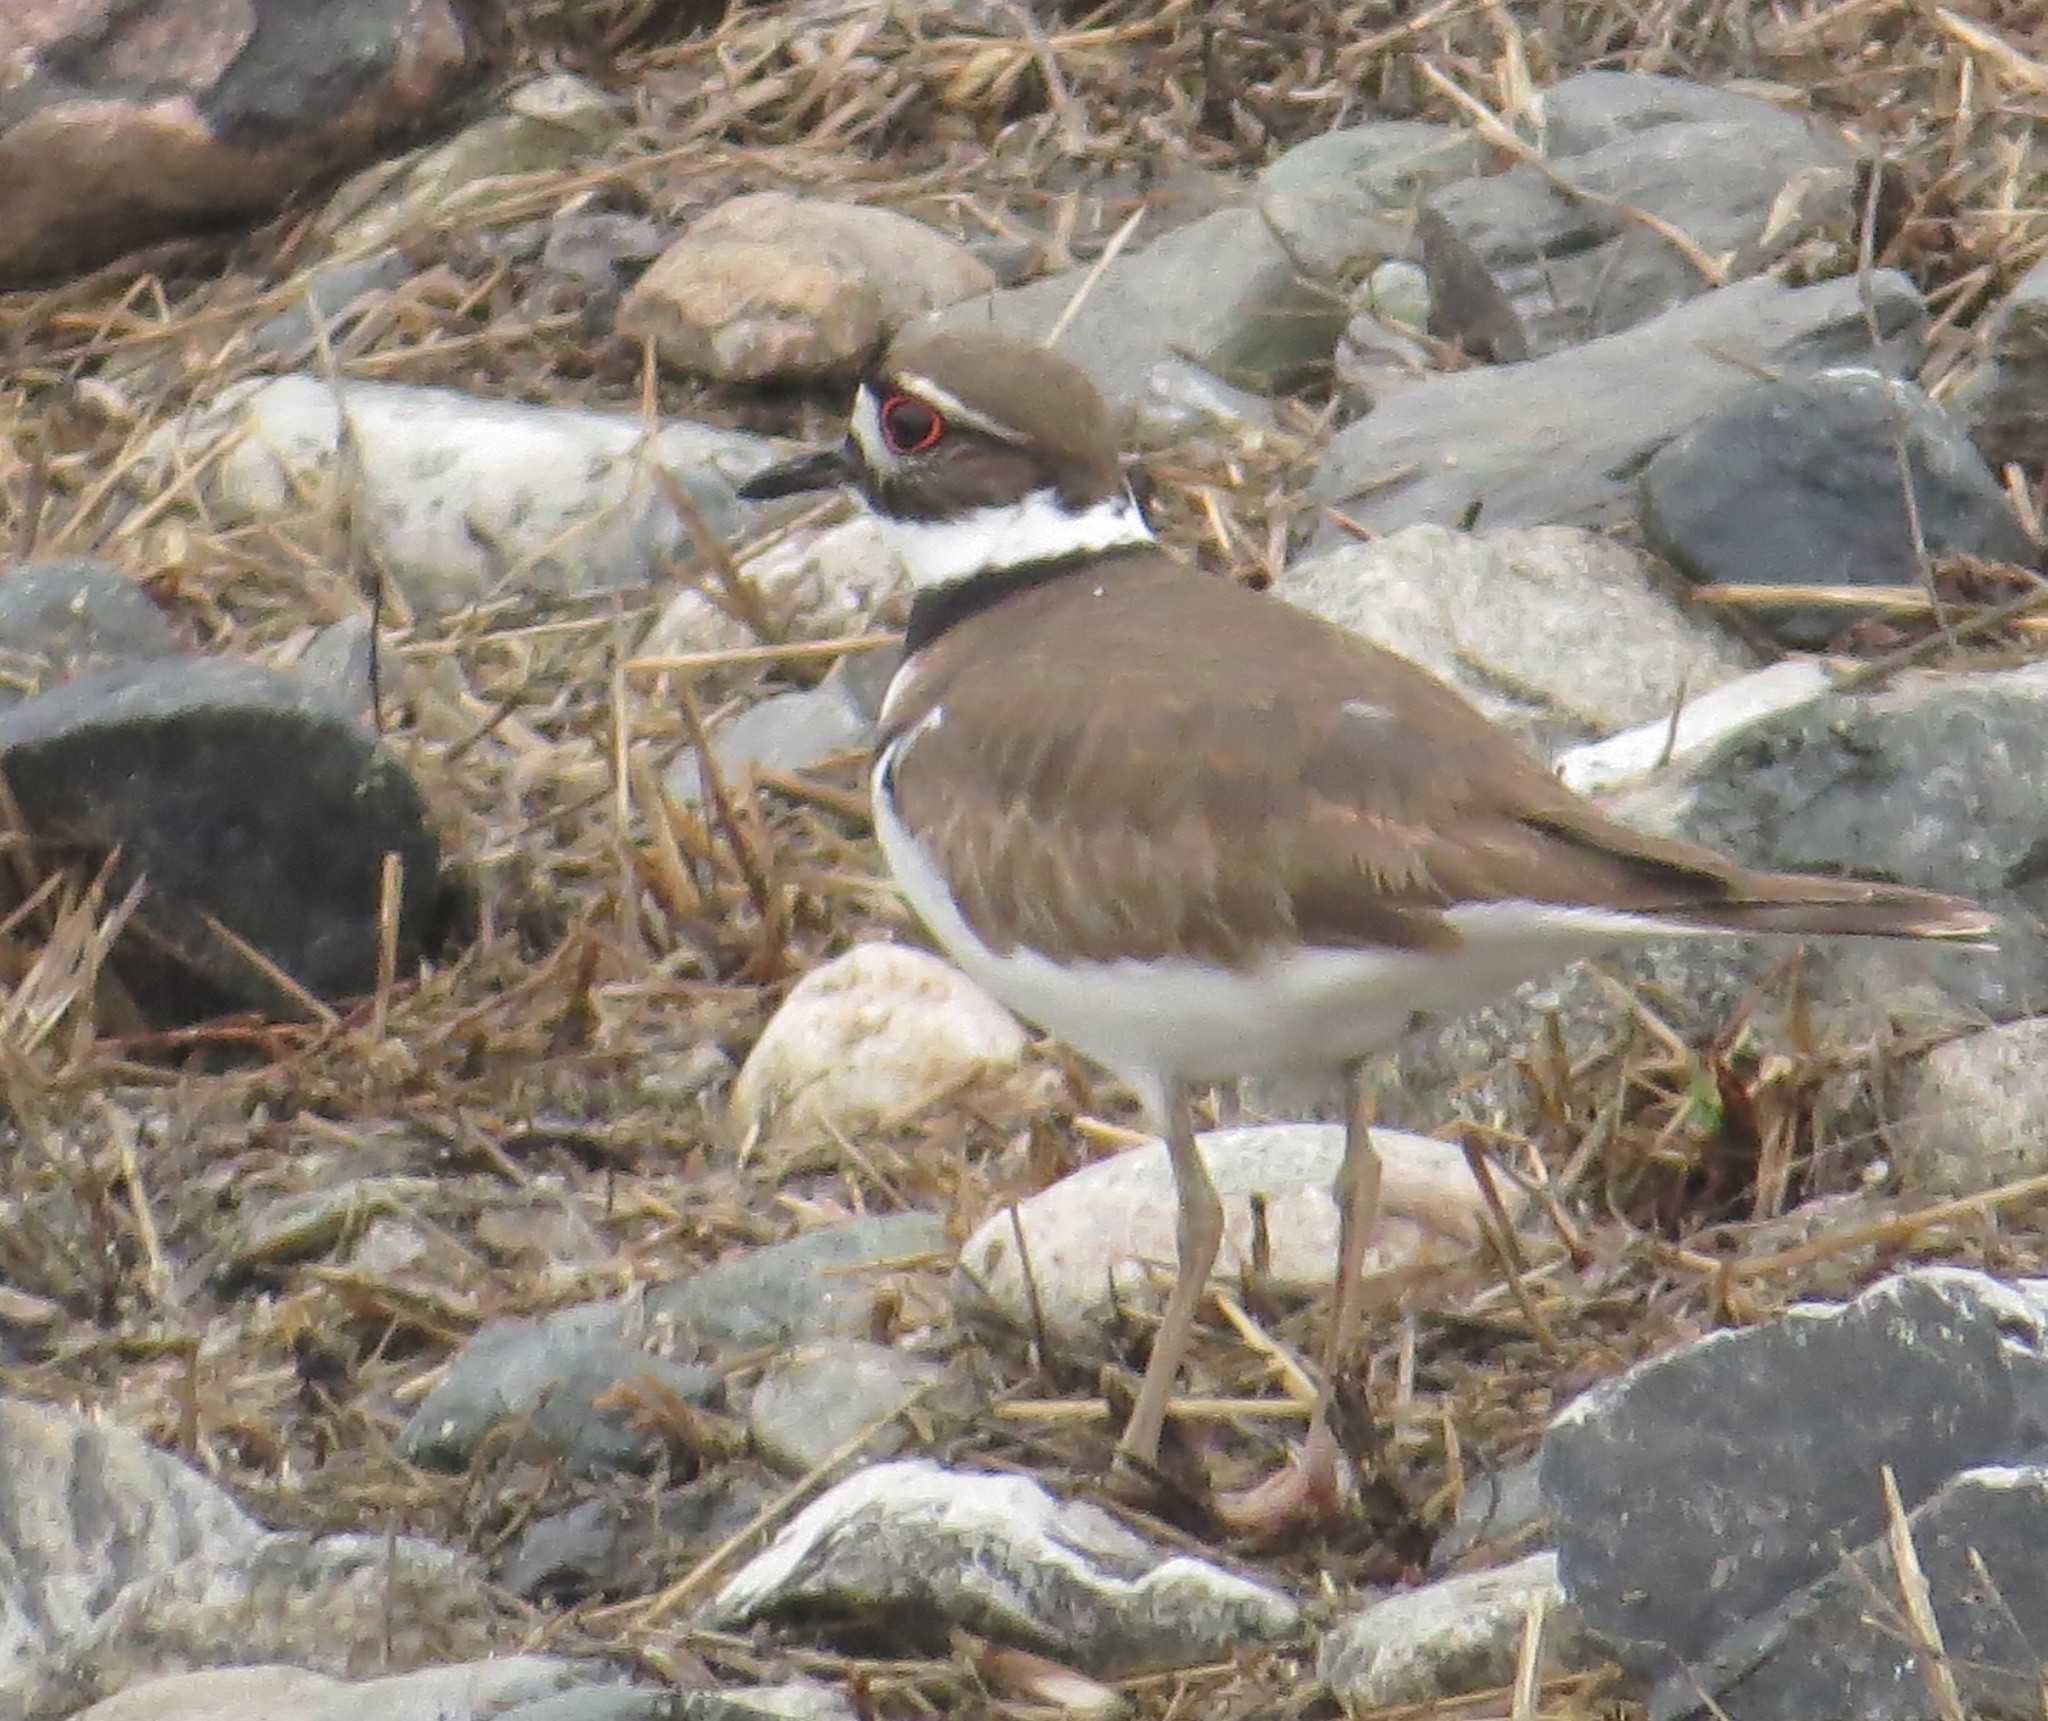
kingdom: Animalia
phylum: Chordata
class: Aves
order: Charadriiformes
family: Charadriidae
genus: Charadrius
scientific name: Charadrius vociferus
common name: Killdeer
